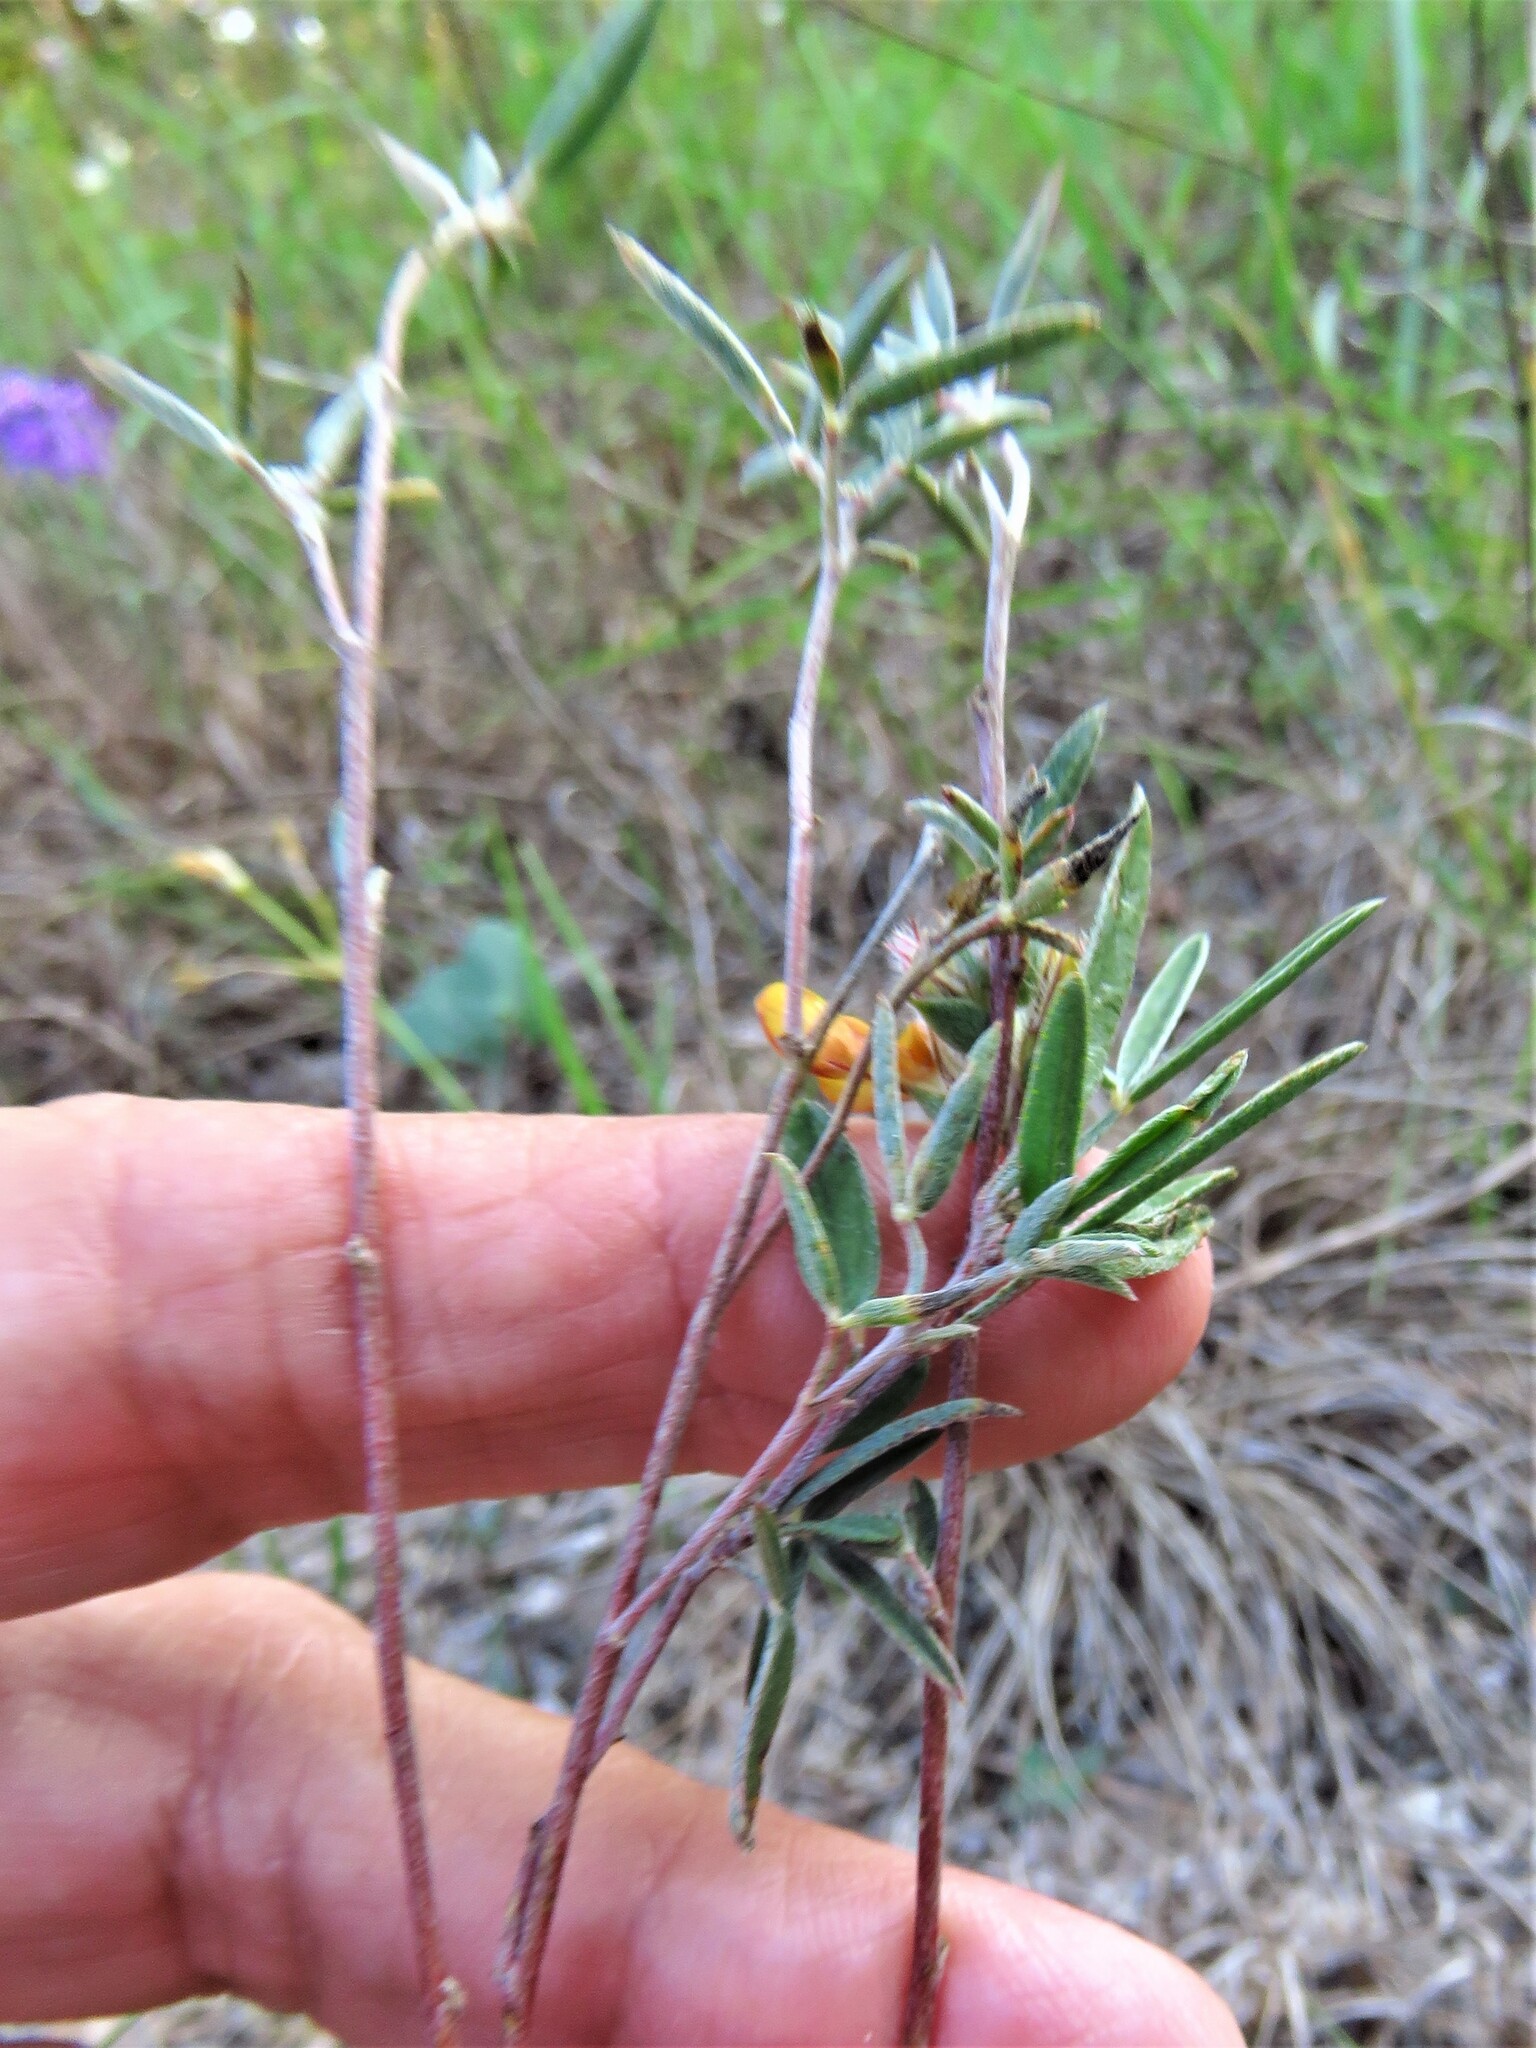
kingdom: Plantae
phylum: Tracheophyta
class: Magnoliopsida
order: Fabales
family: Fabaceae
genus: Dalea
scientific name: Dalea hallii
